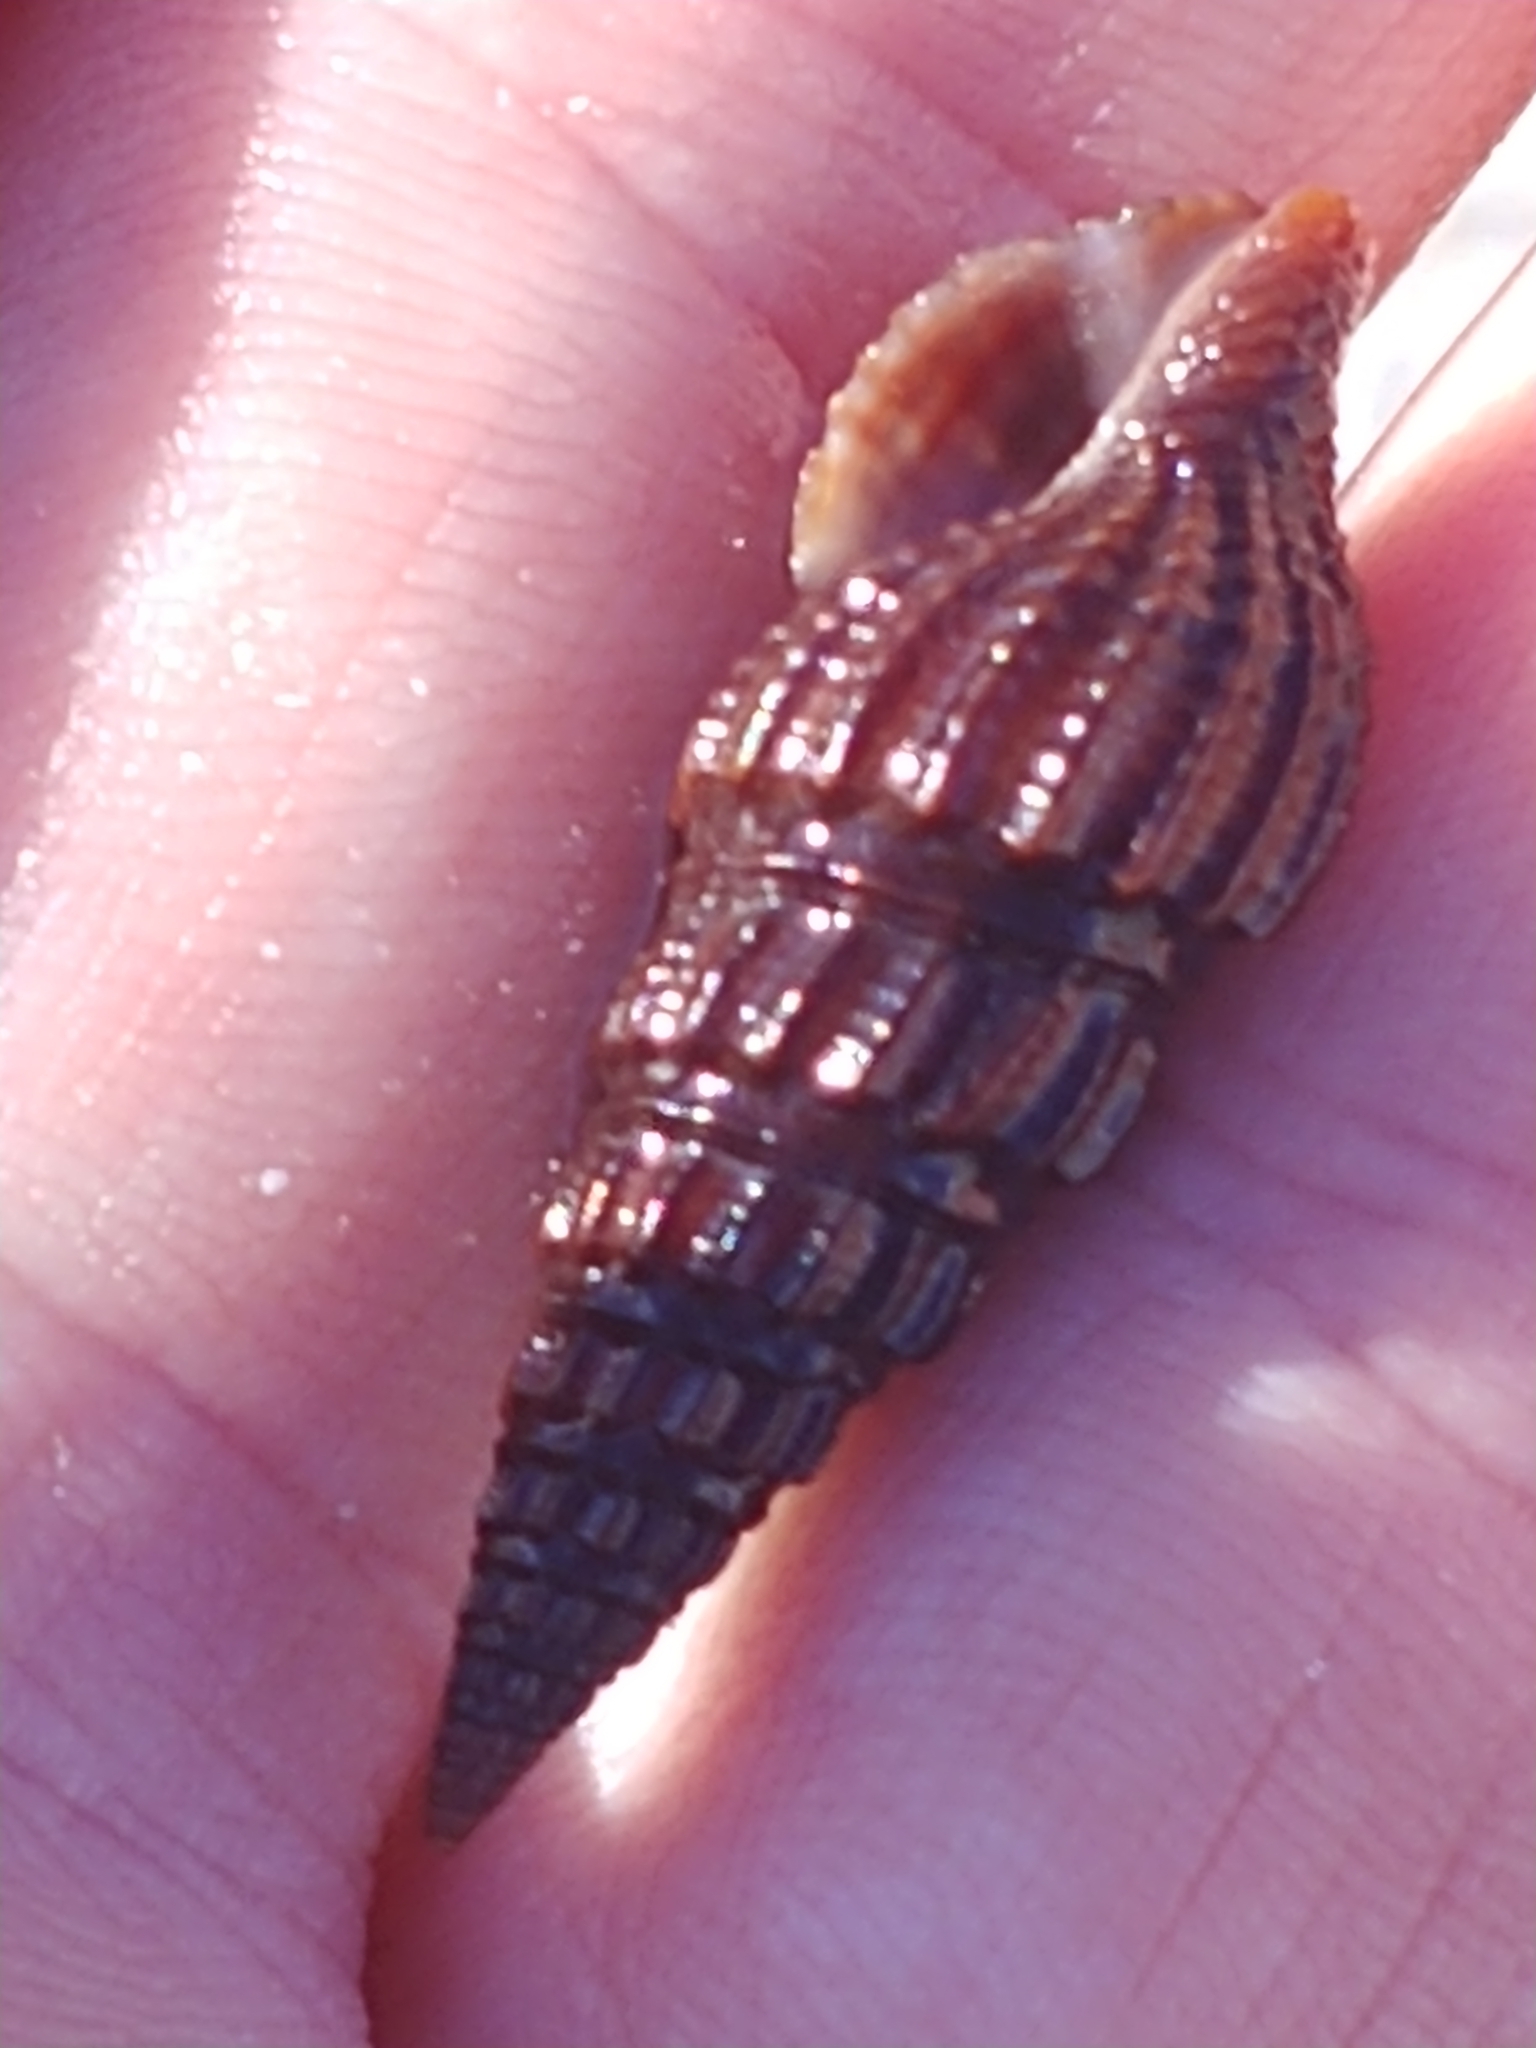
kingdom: Animalia
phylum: Mollusca
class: Gastropoda
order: Neogastropoda
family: Pseudomelatomidae
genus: Pyrgospira
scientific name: Pyrgospira tampaensis
